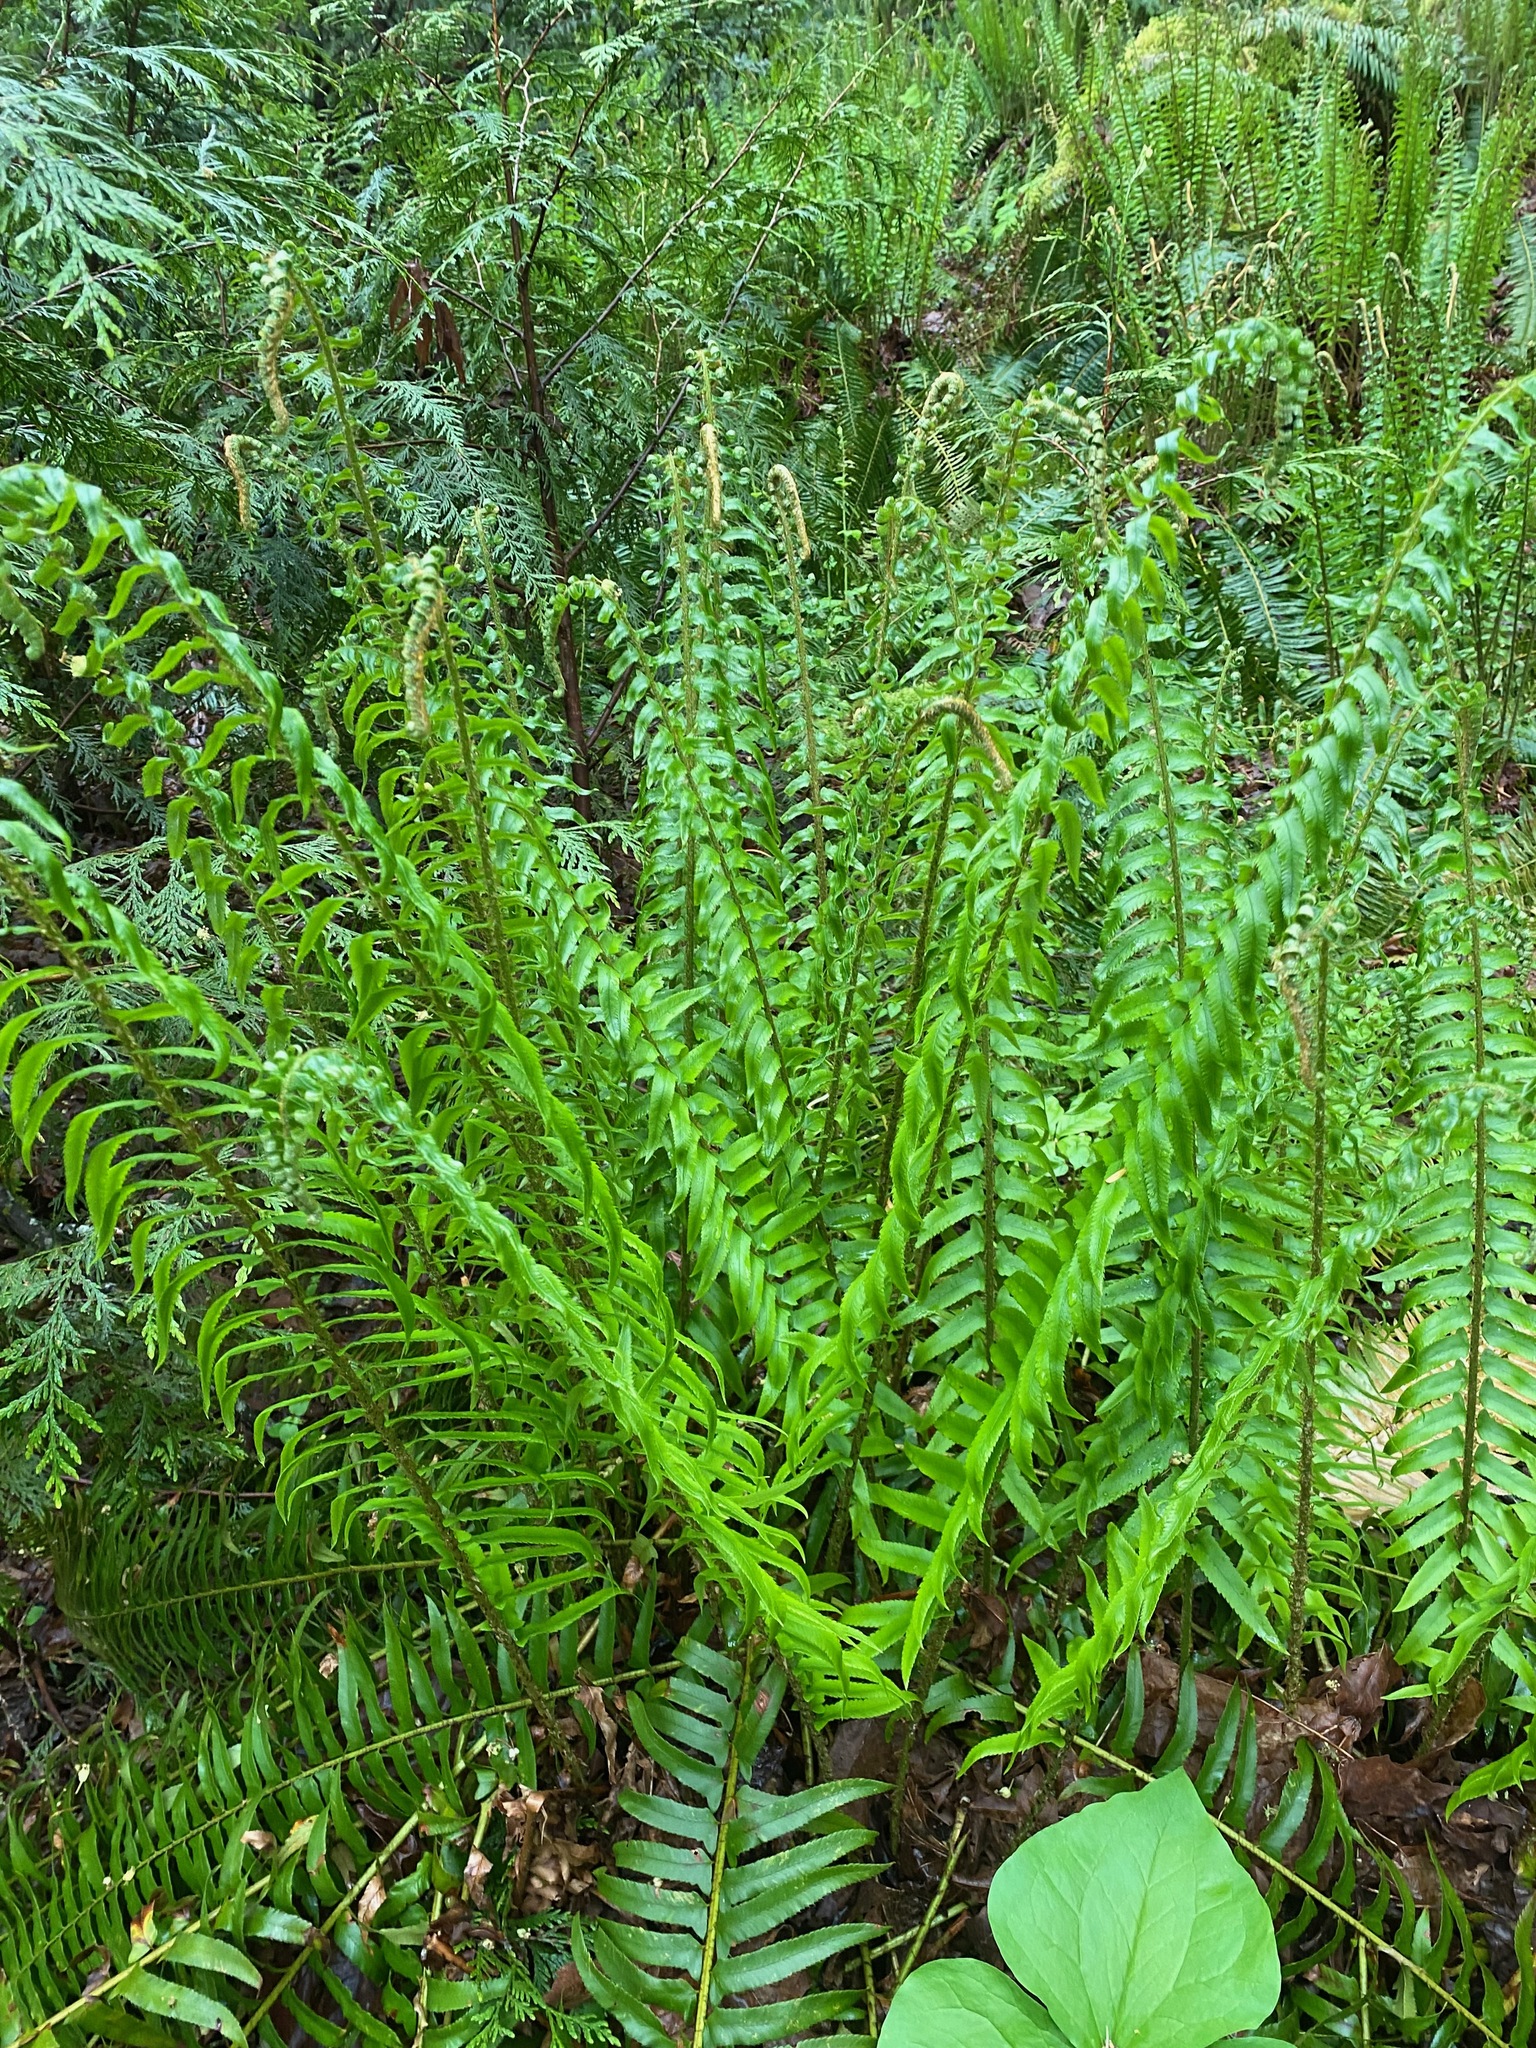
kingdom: Plantae
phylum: Tracheophyta
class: Polypodiopsida
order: Polypodiales
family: Dryopteridaceae
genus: Polystichum
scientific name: Polystichum munitum
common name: Western sword-fern
